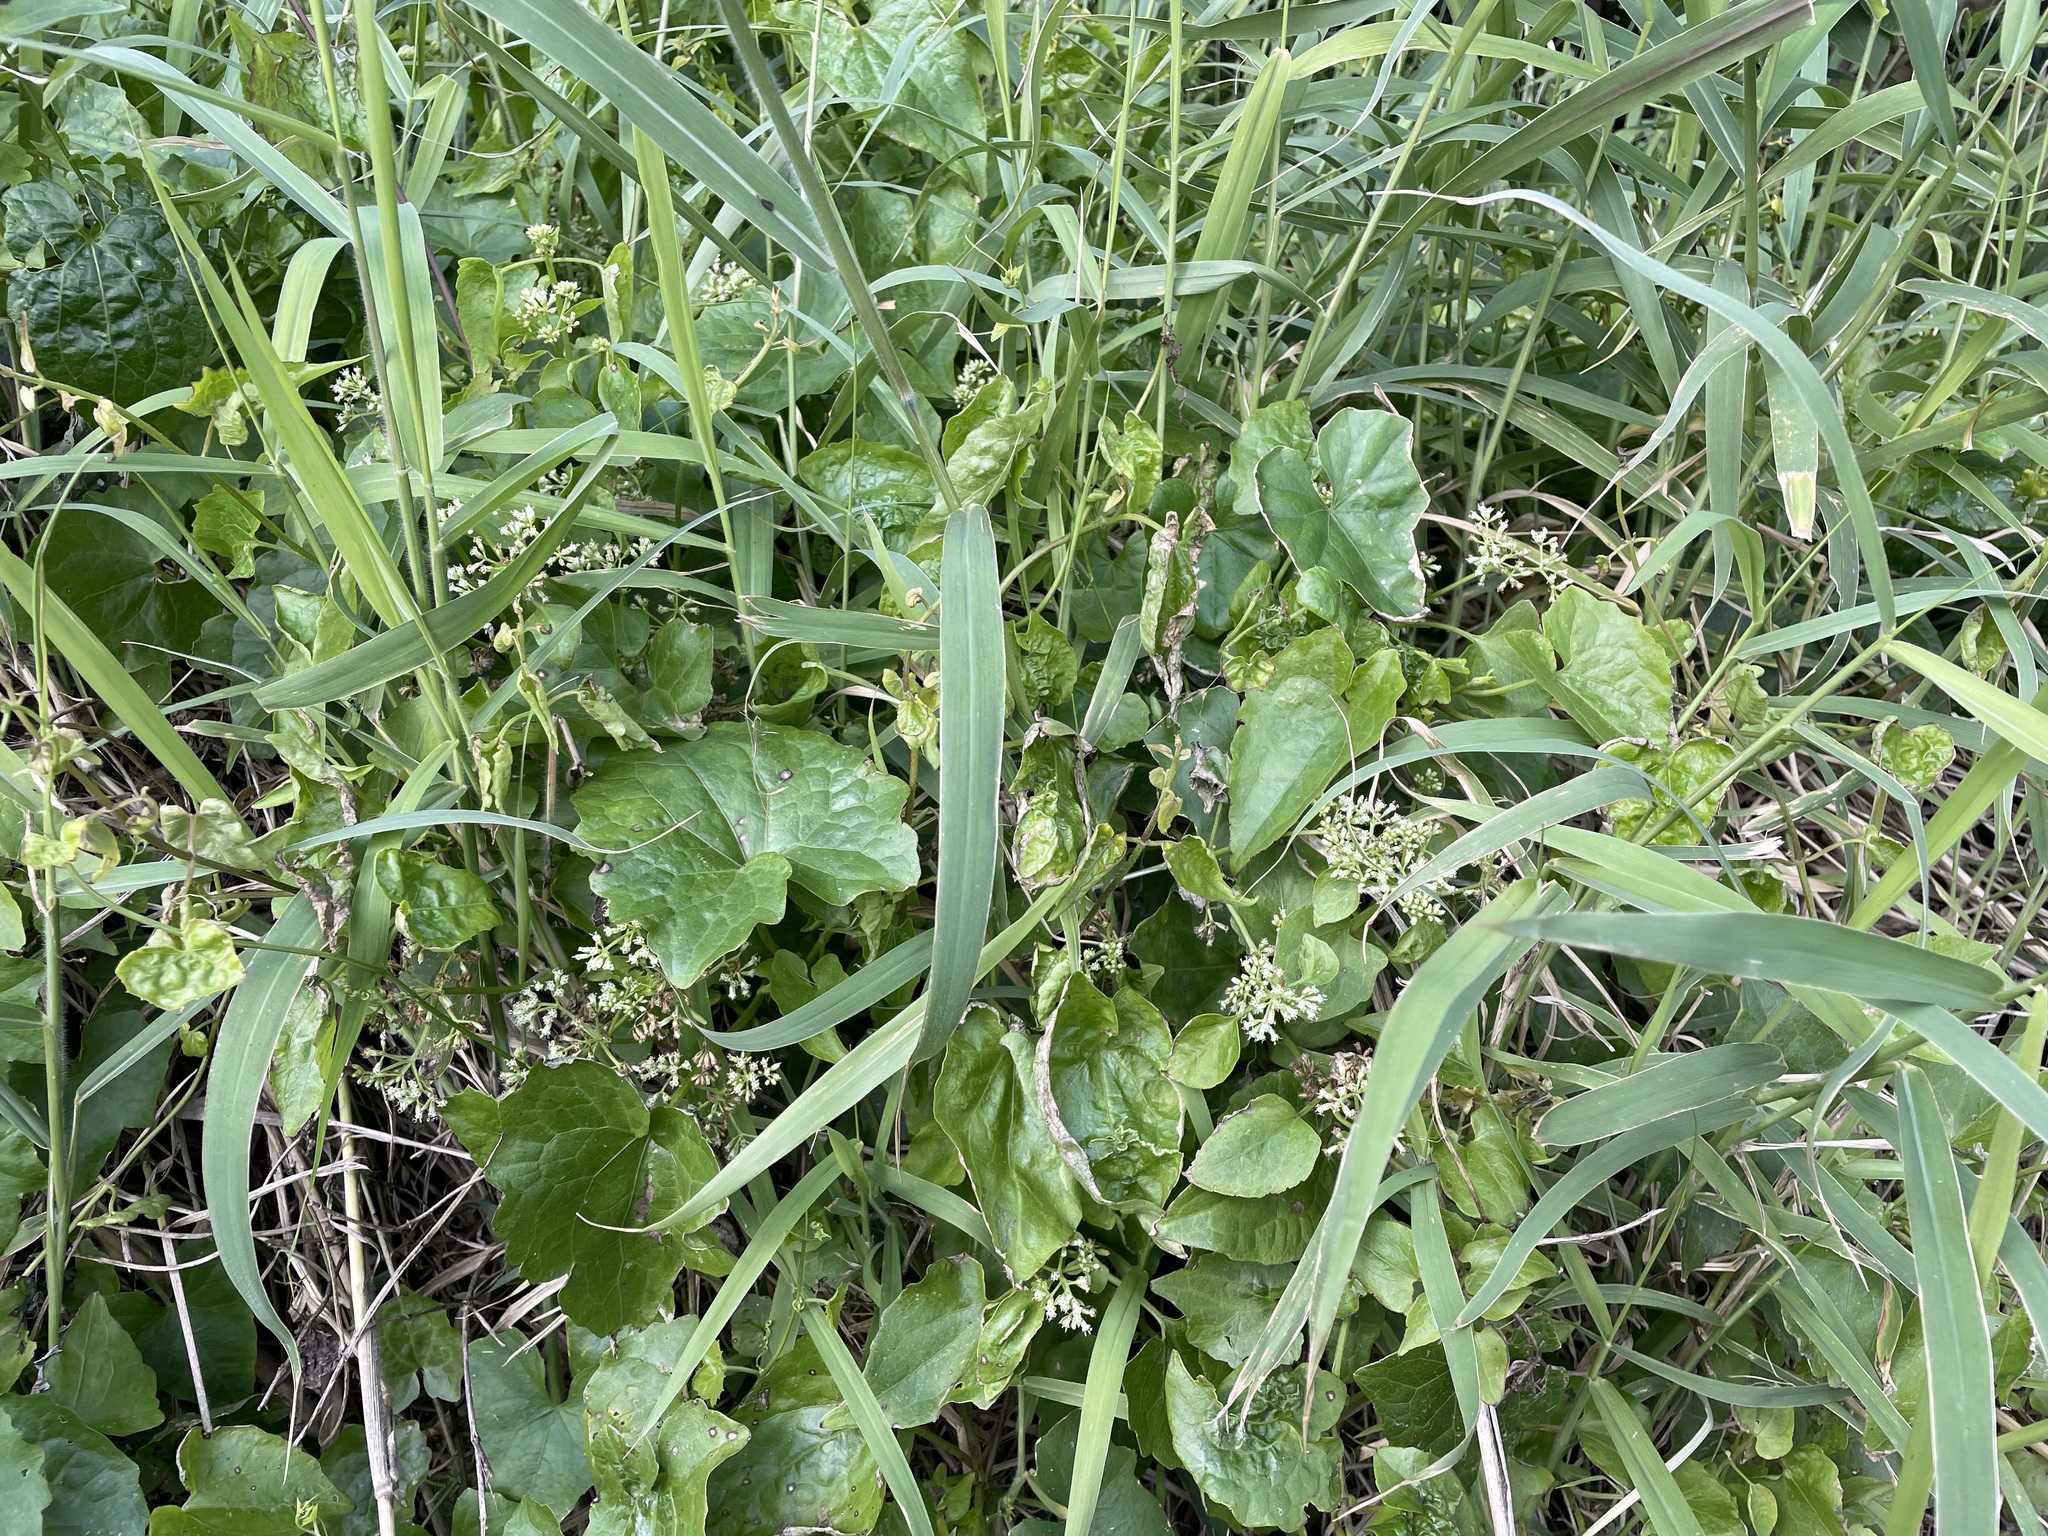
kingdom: Plantae
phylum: Tracheophyta
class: Magnoliopsida
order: Asterales
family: Asteraceae
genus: Mikania
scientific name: Mikania micrantha
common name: Mile-a-minute
